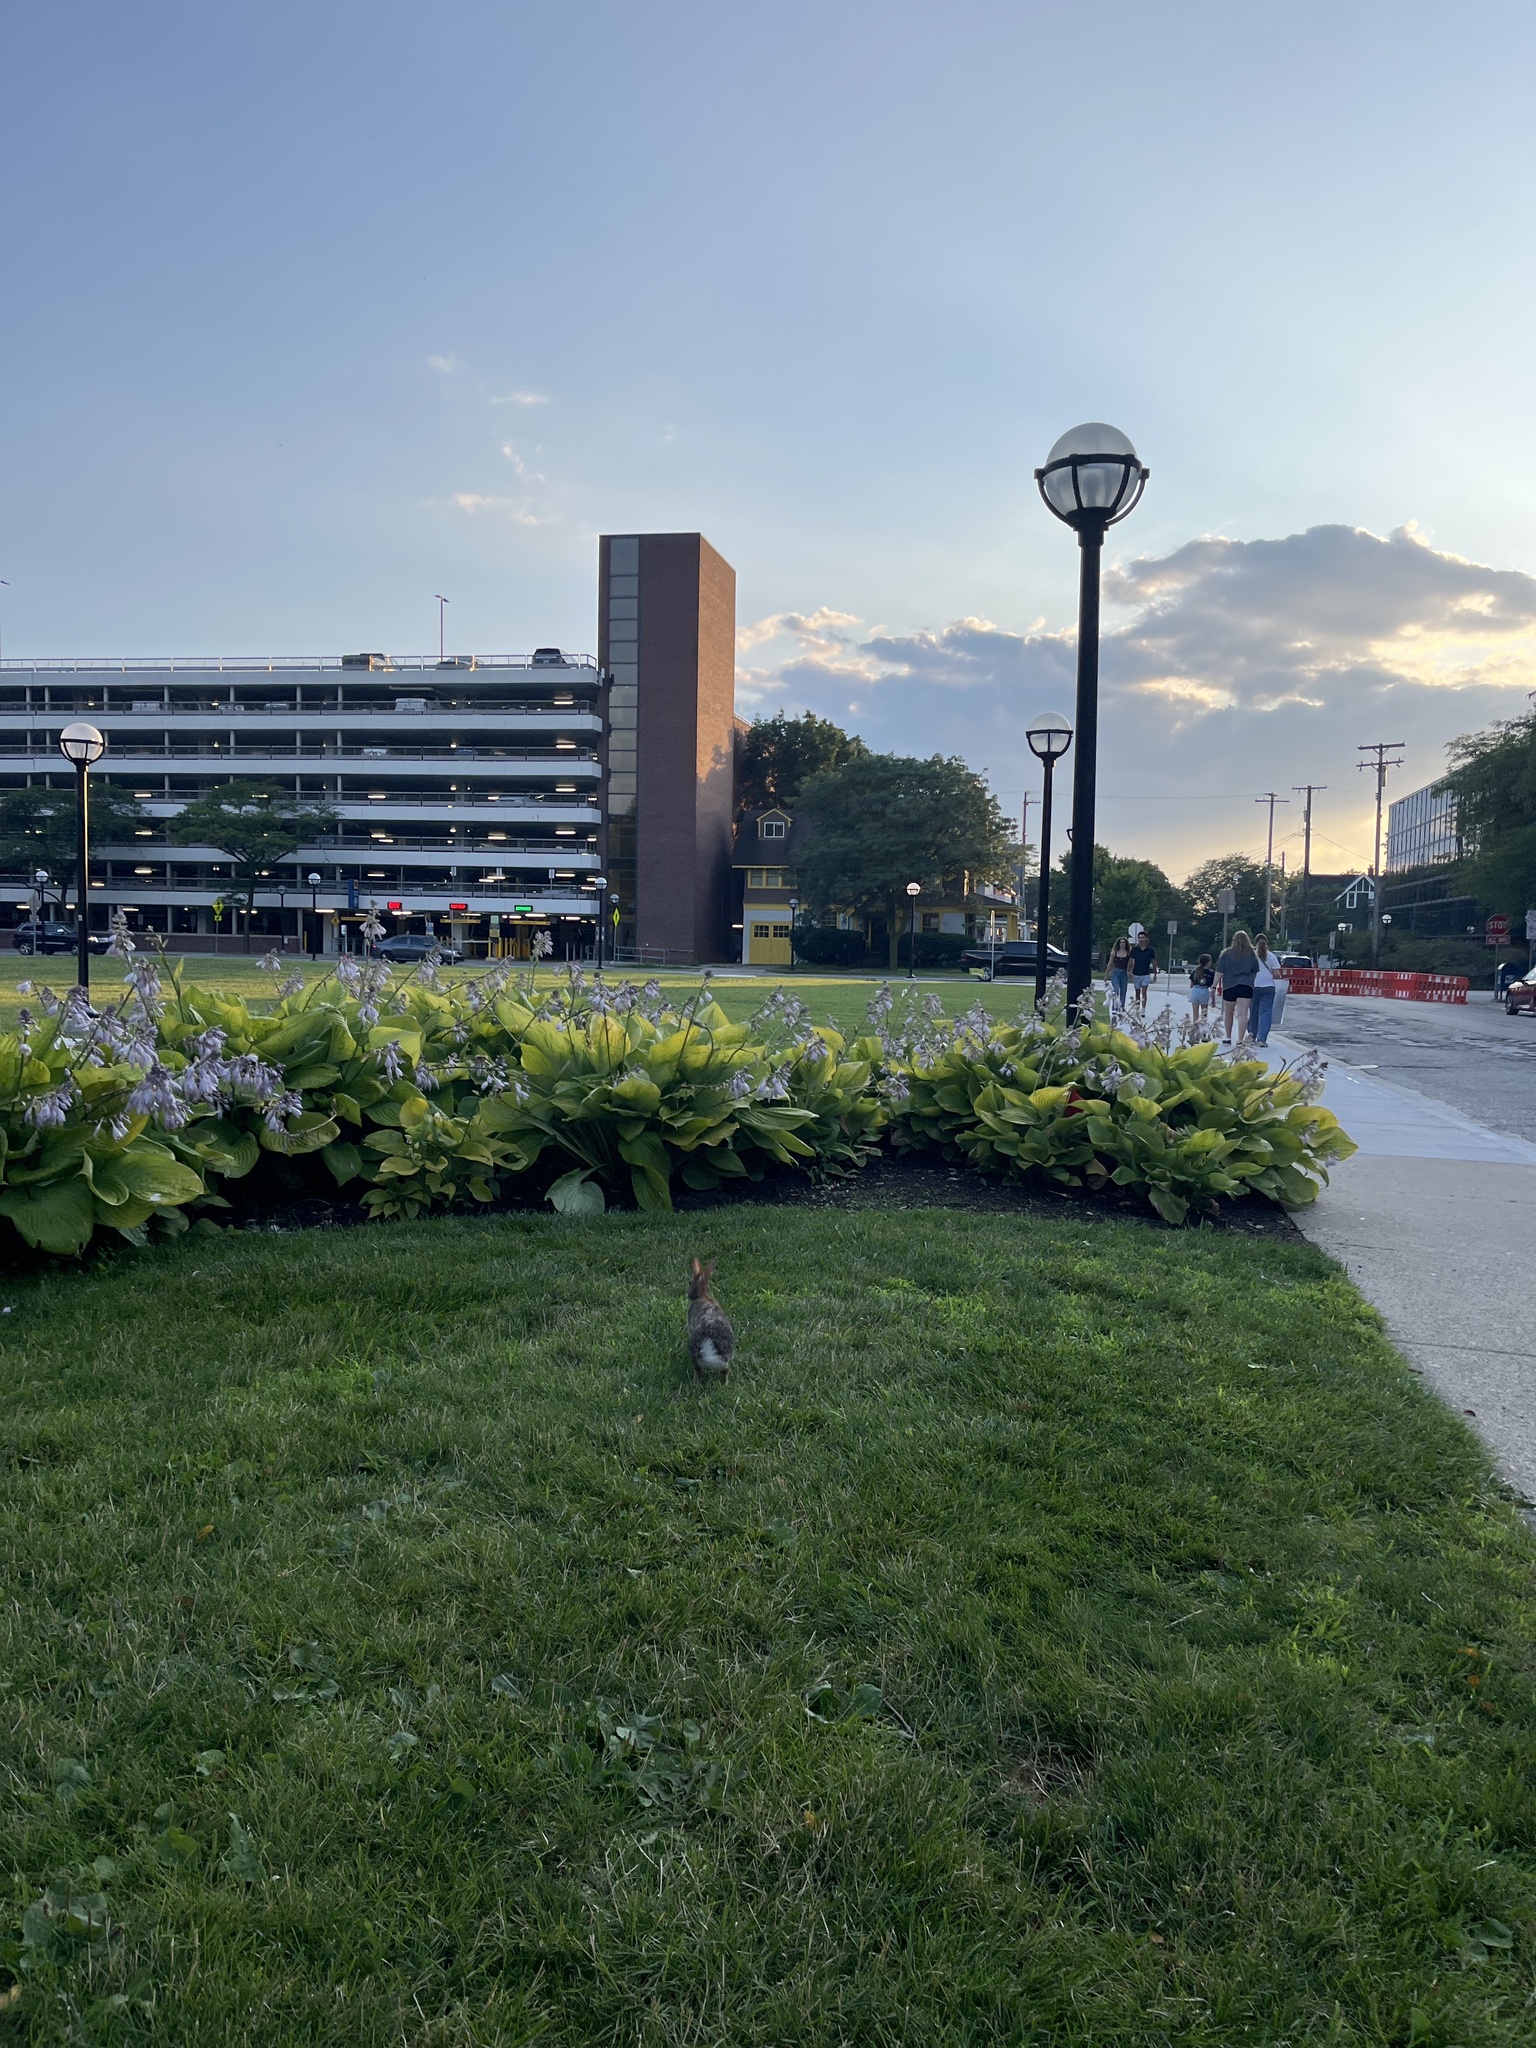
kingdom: Animalia
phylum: Chordata
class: Mammalia
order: Lagomorpha
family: Leporidae
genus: Sylvilagus
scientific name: Sylvilagus floridanus
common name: Eastern cottontail
